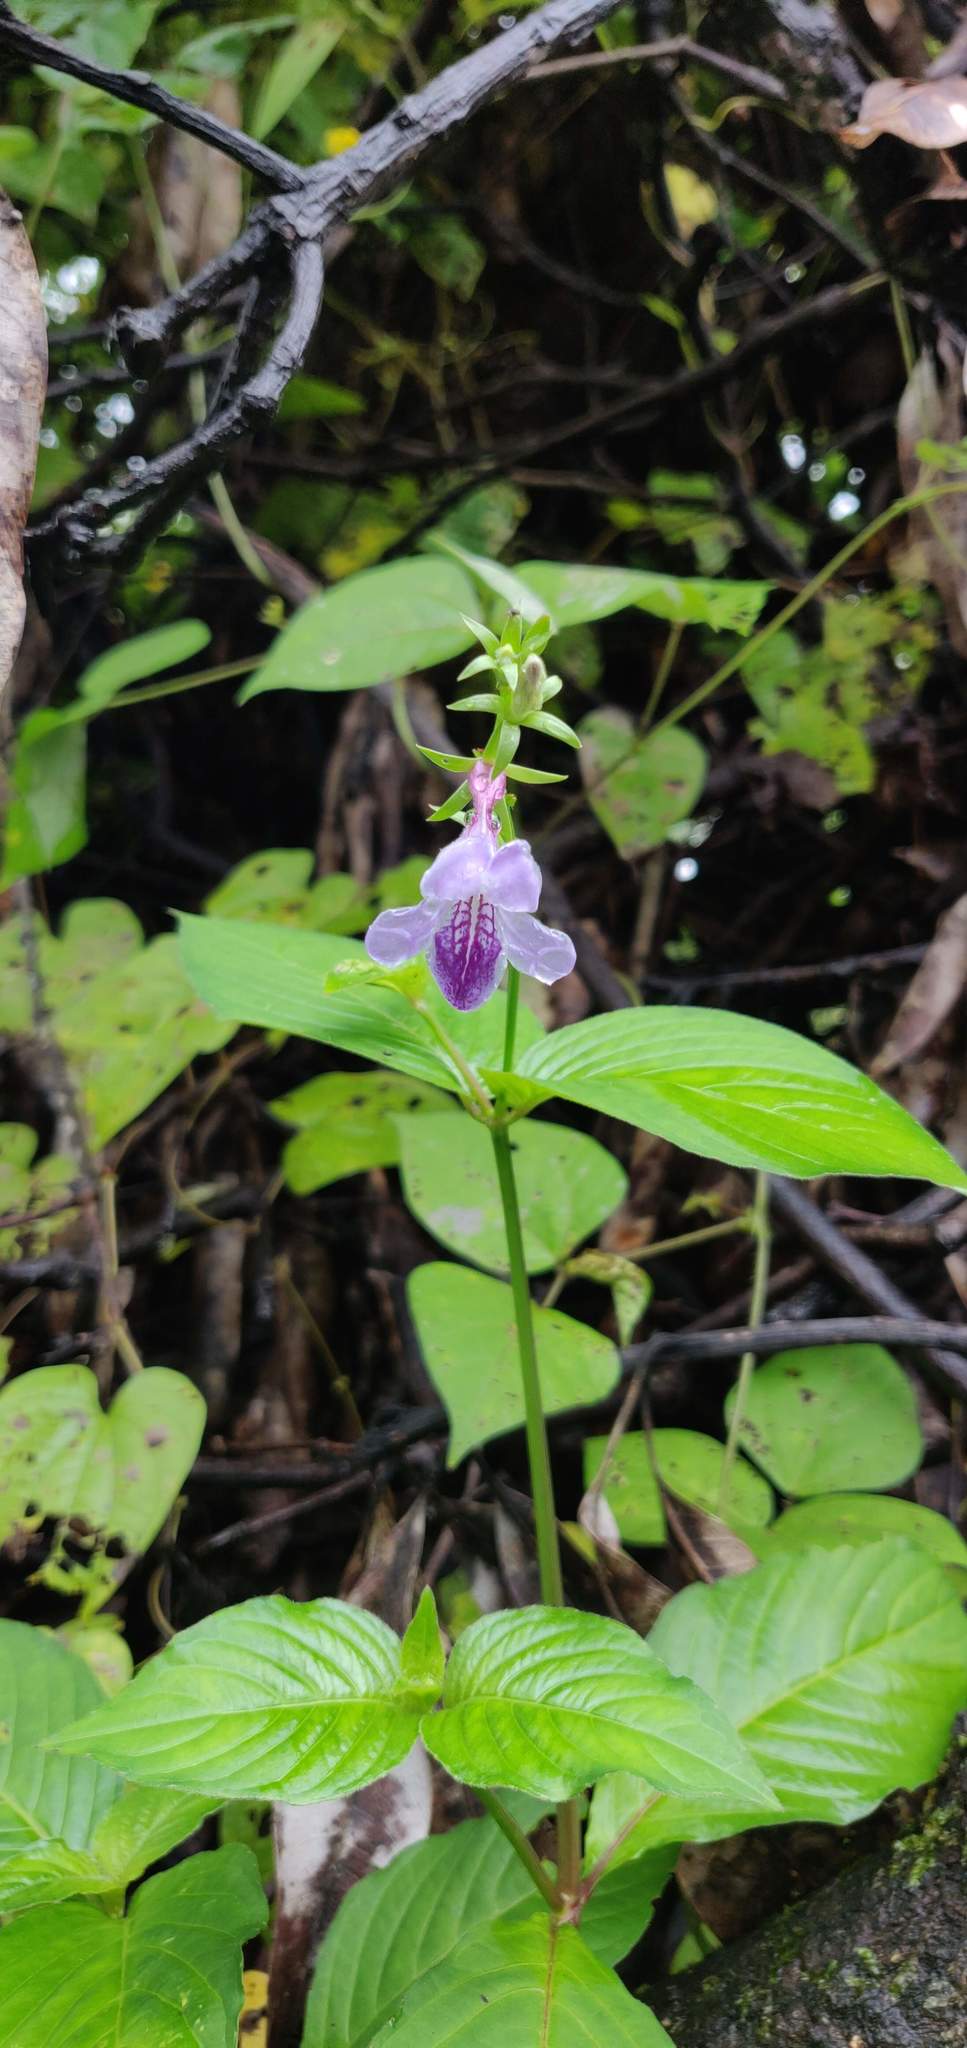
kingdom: Plantae
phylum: Tracheophyta
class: Magnoliopsida
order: Lamiales
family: Acanthaceae
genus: Asystasia
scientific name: Asystasia dalzelliana
